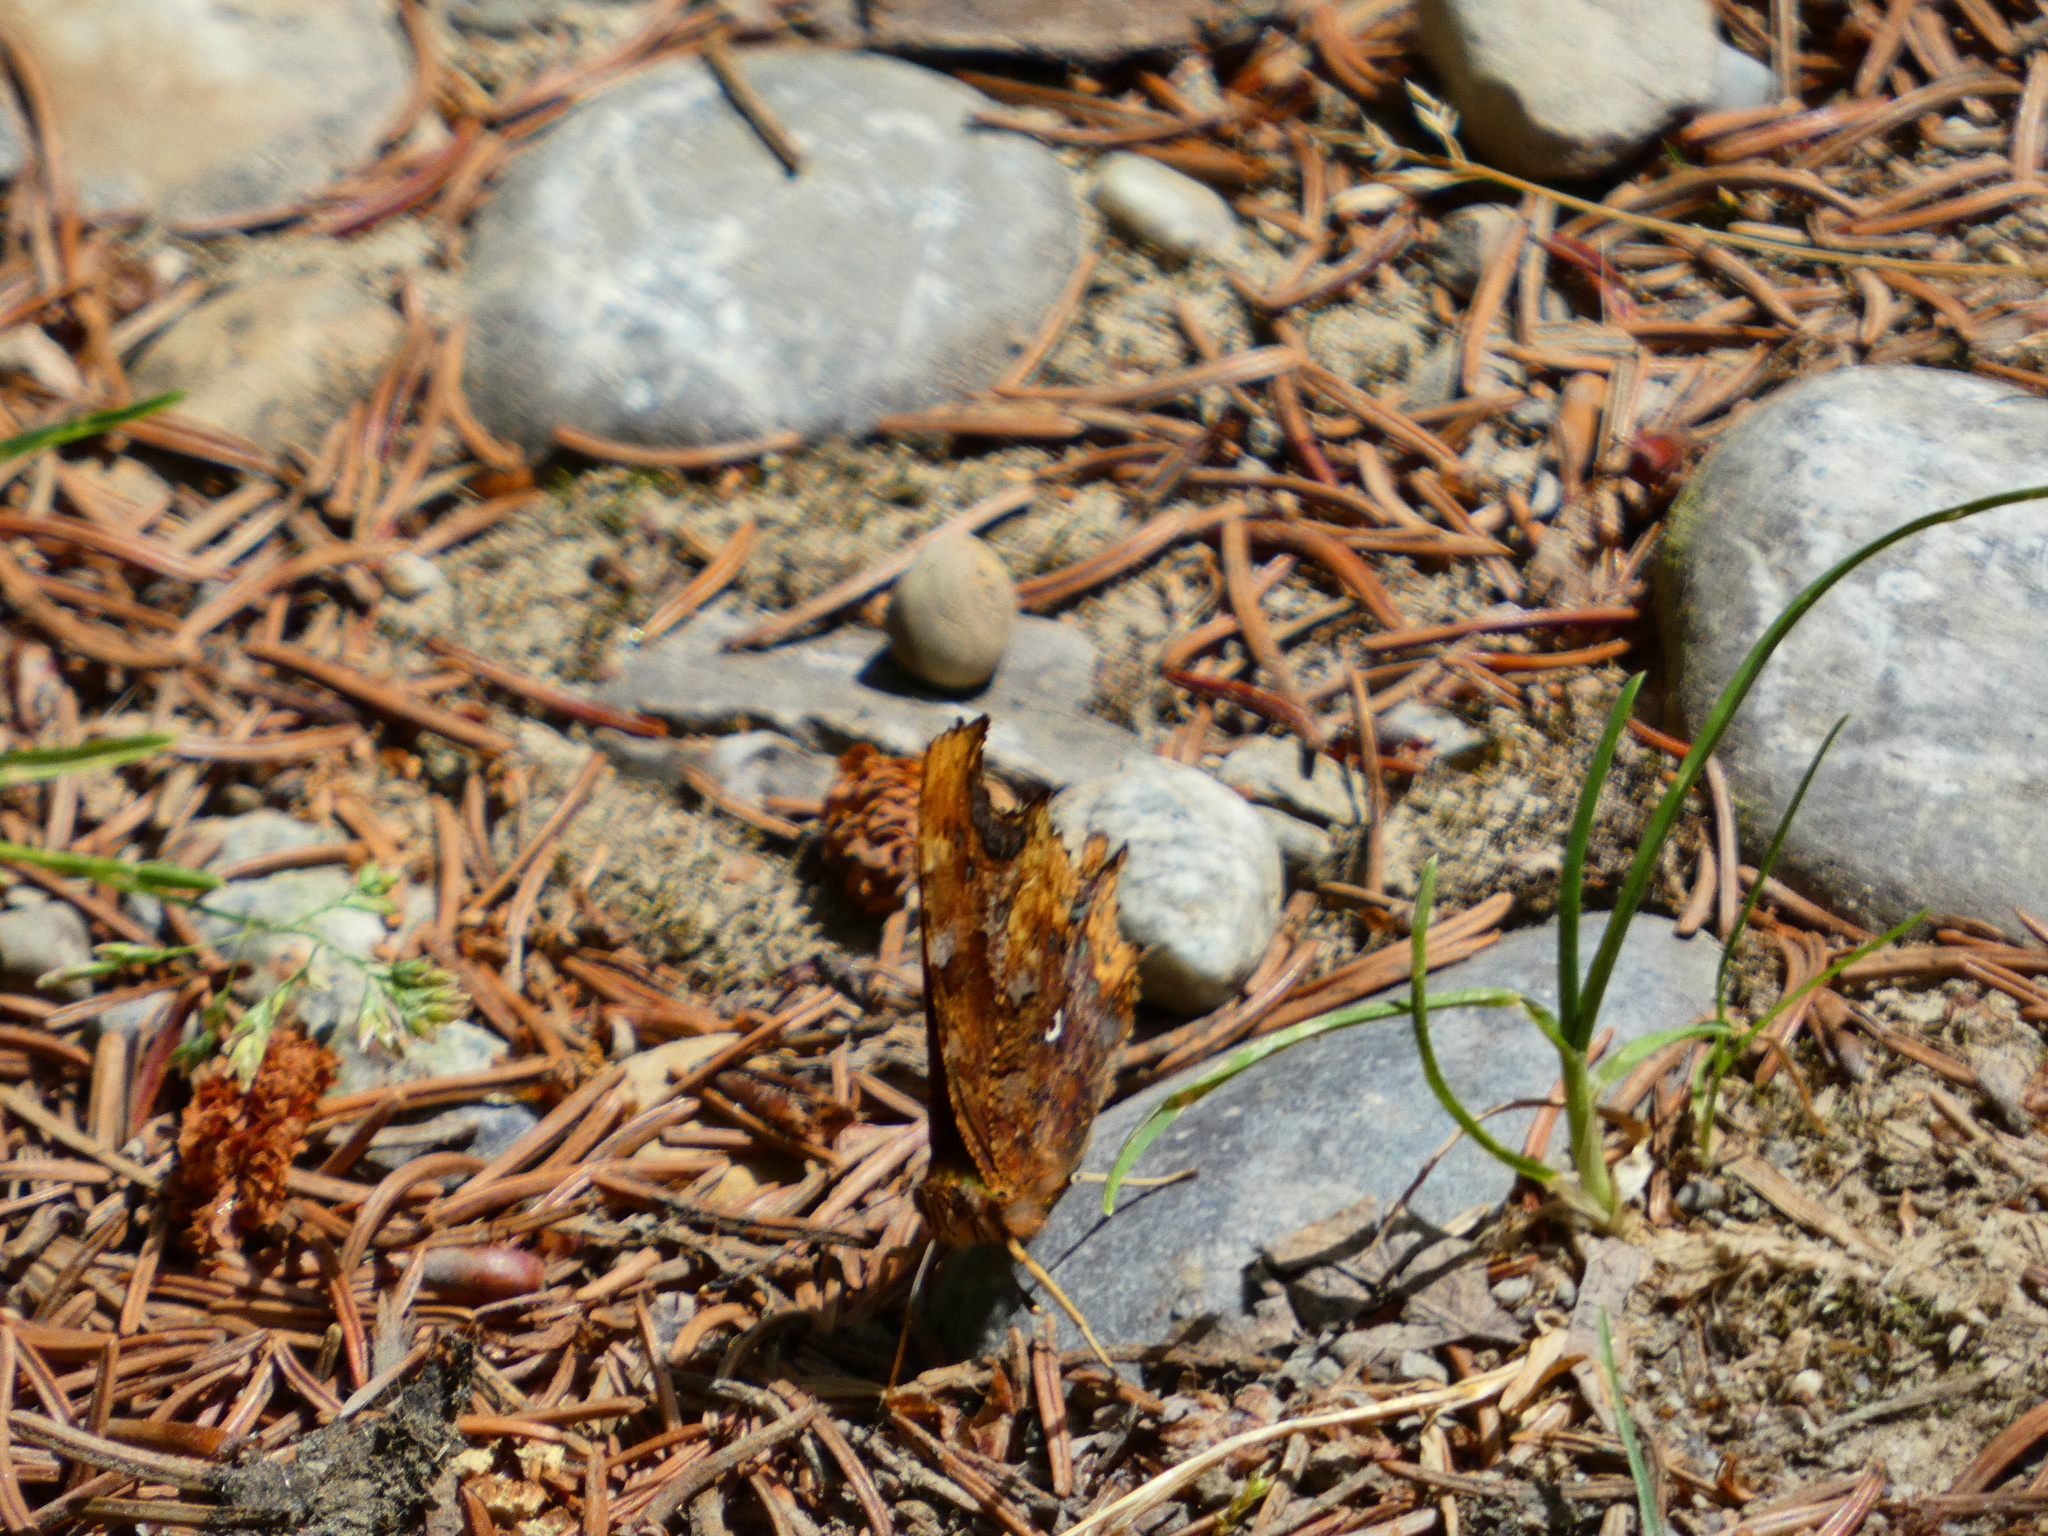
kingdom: Animalia
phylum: Arthropoda
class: Insecta
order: Lepidoptera
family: Nymphalidae
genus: Polygonia
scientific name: Polygonia c-album
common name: Comma
